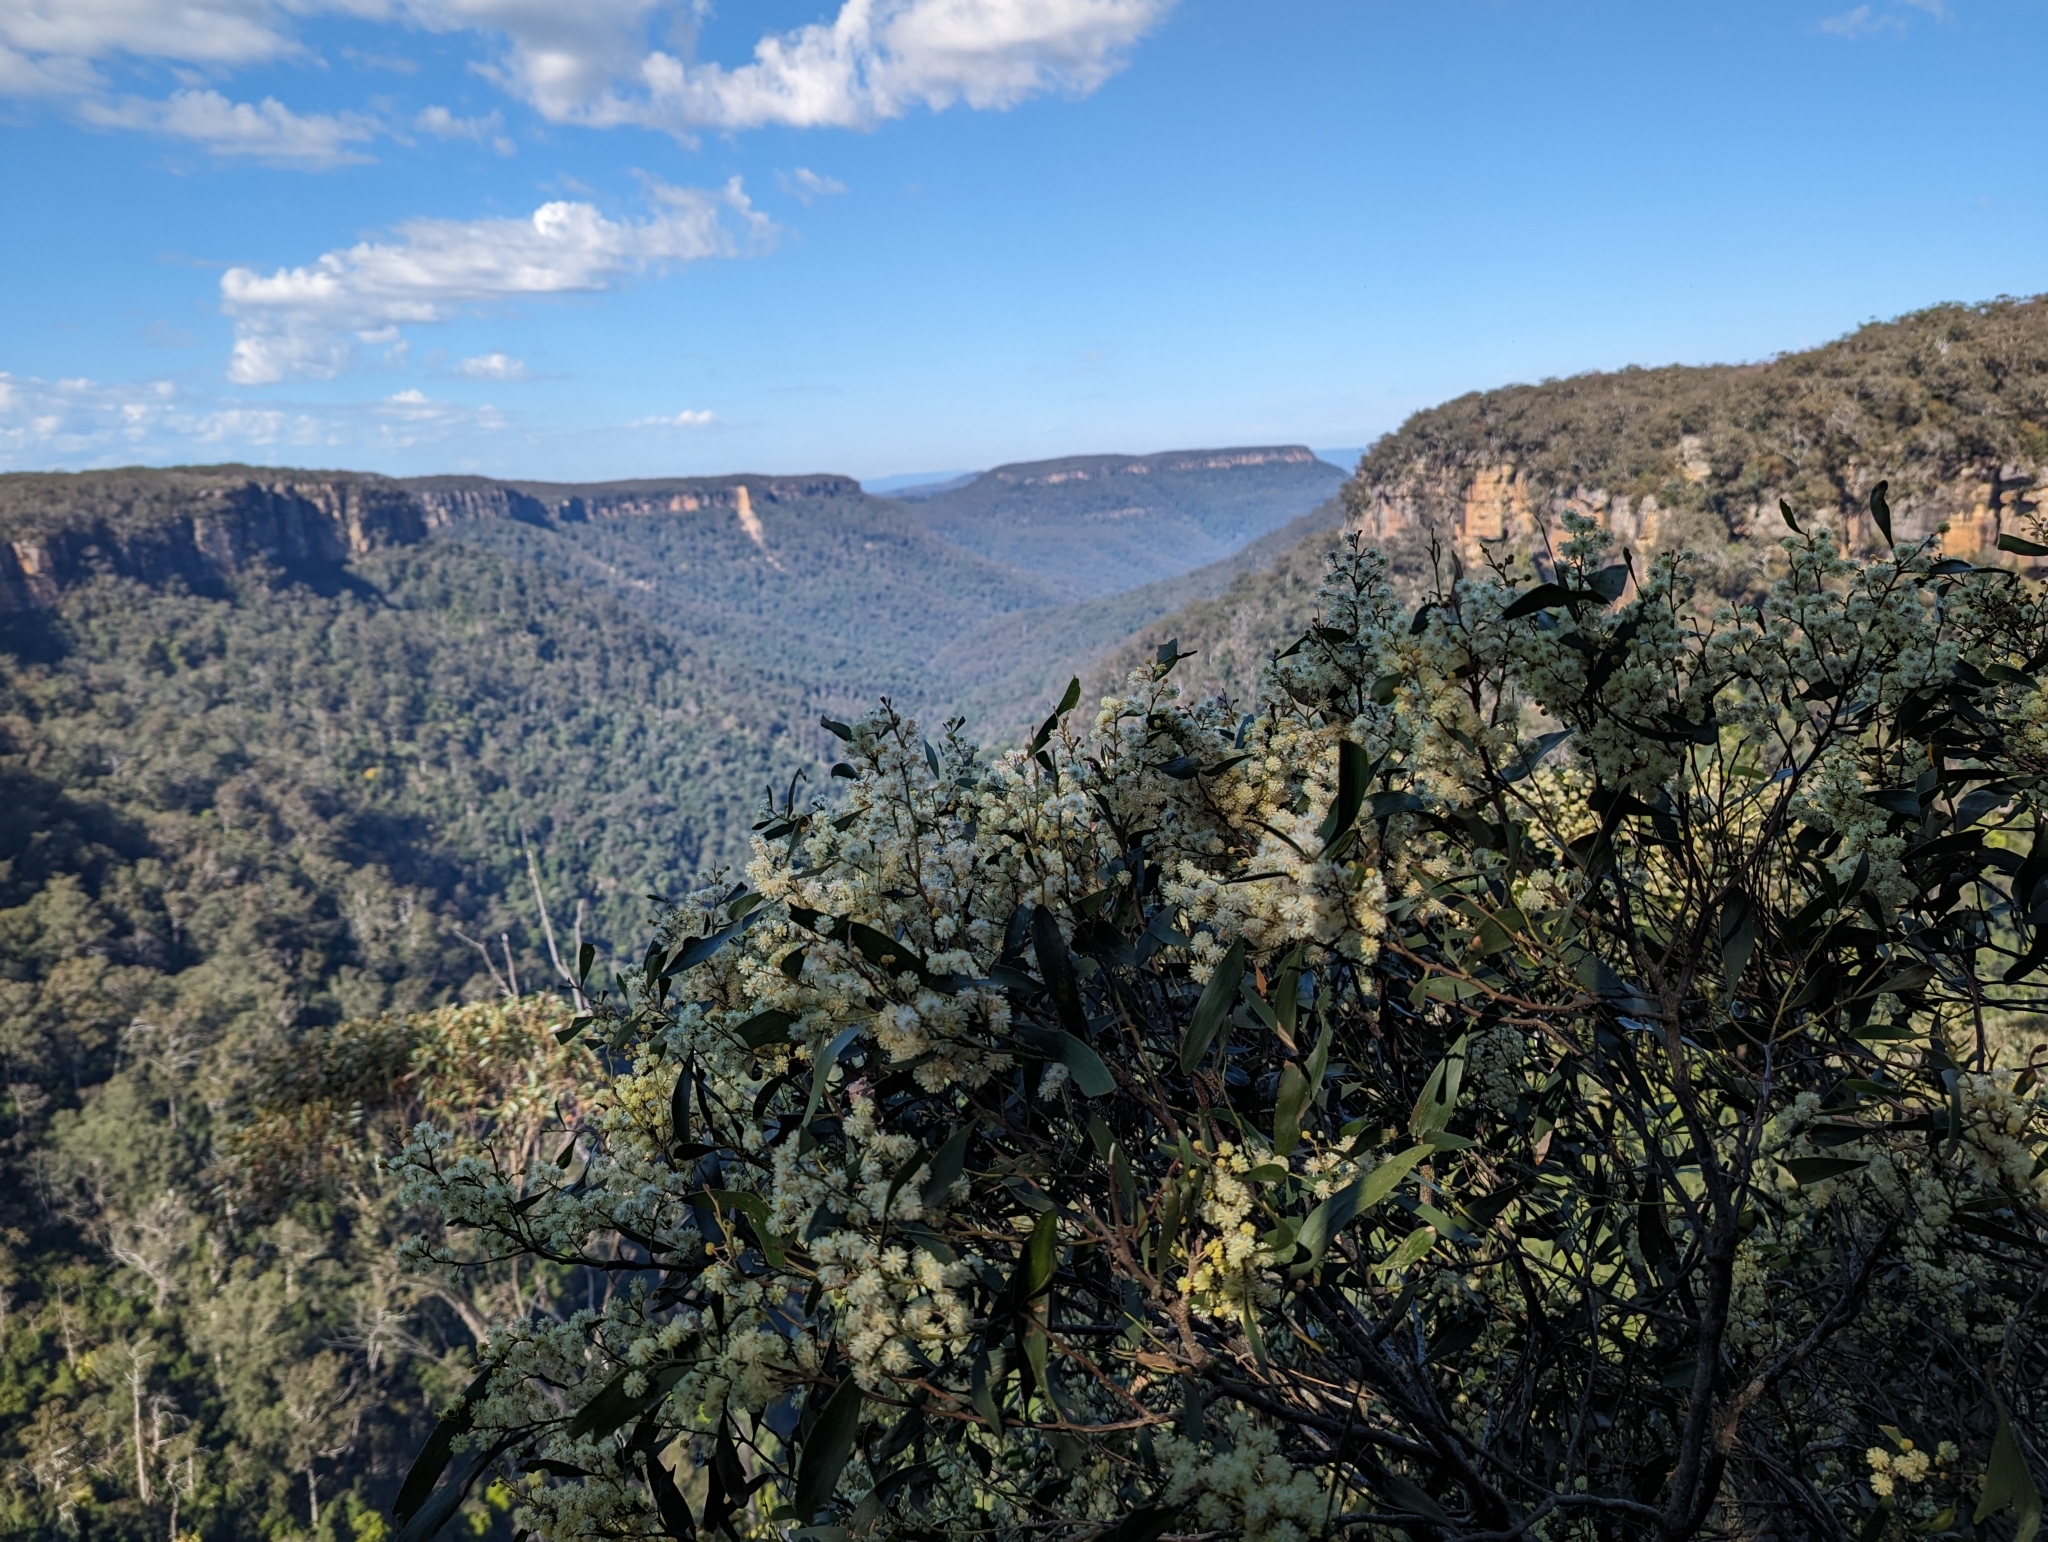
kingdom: Plantae
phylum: Tracheophyta
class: Magnoliopsida
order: Fabales
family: Fabaceae
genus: Acacia
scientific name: Acacia melanoxylon
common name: Blackwood
